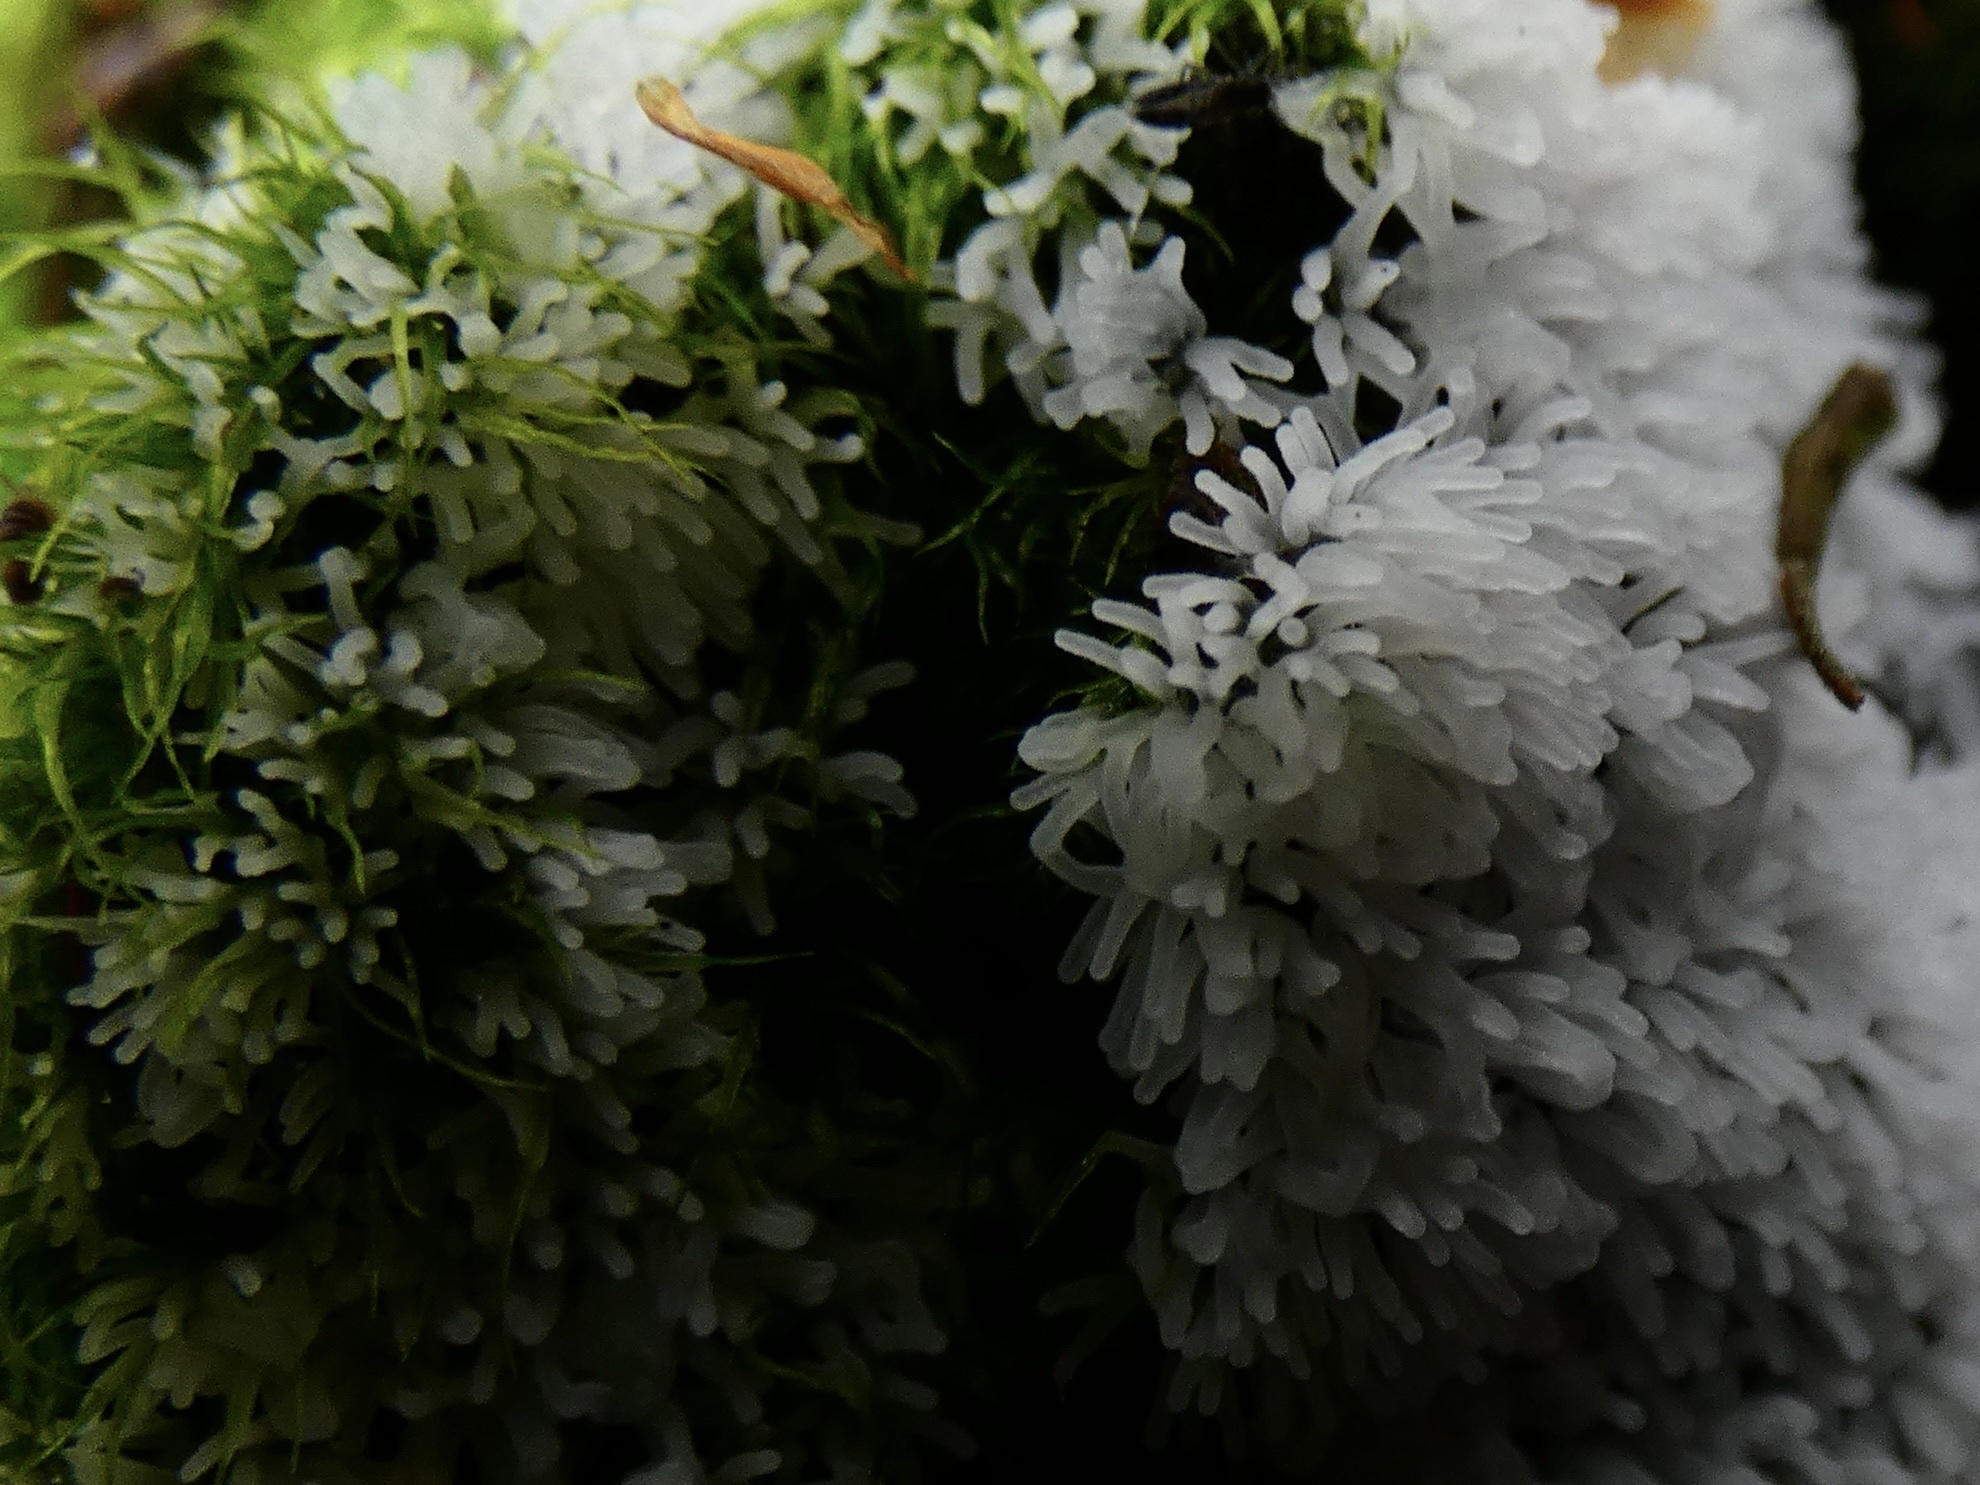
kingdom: Protozoa
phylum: Mycetozoa
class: Protosteliomycetes
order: Ceratiomyxales
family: Ceratiomyxaceae
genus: Ceratiomyxa
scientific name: Ceratiomyxa fruticulosa
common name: Honeycomb coral slime mold
